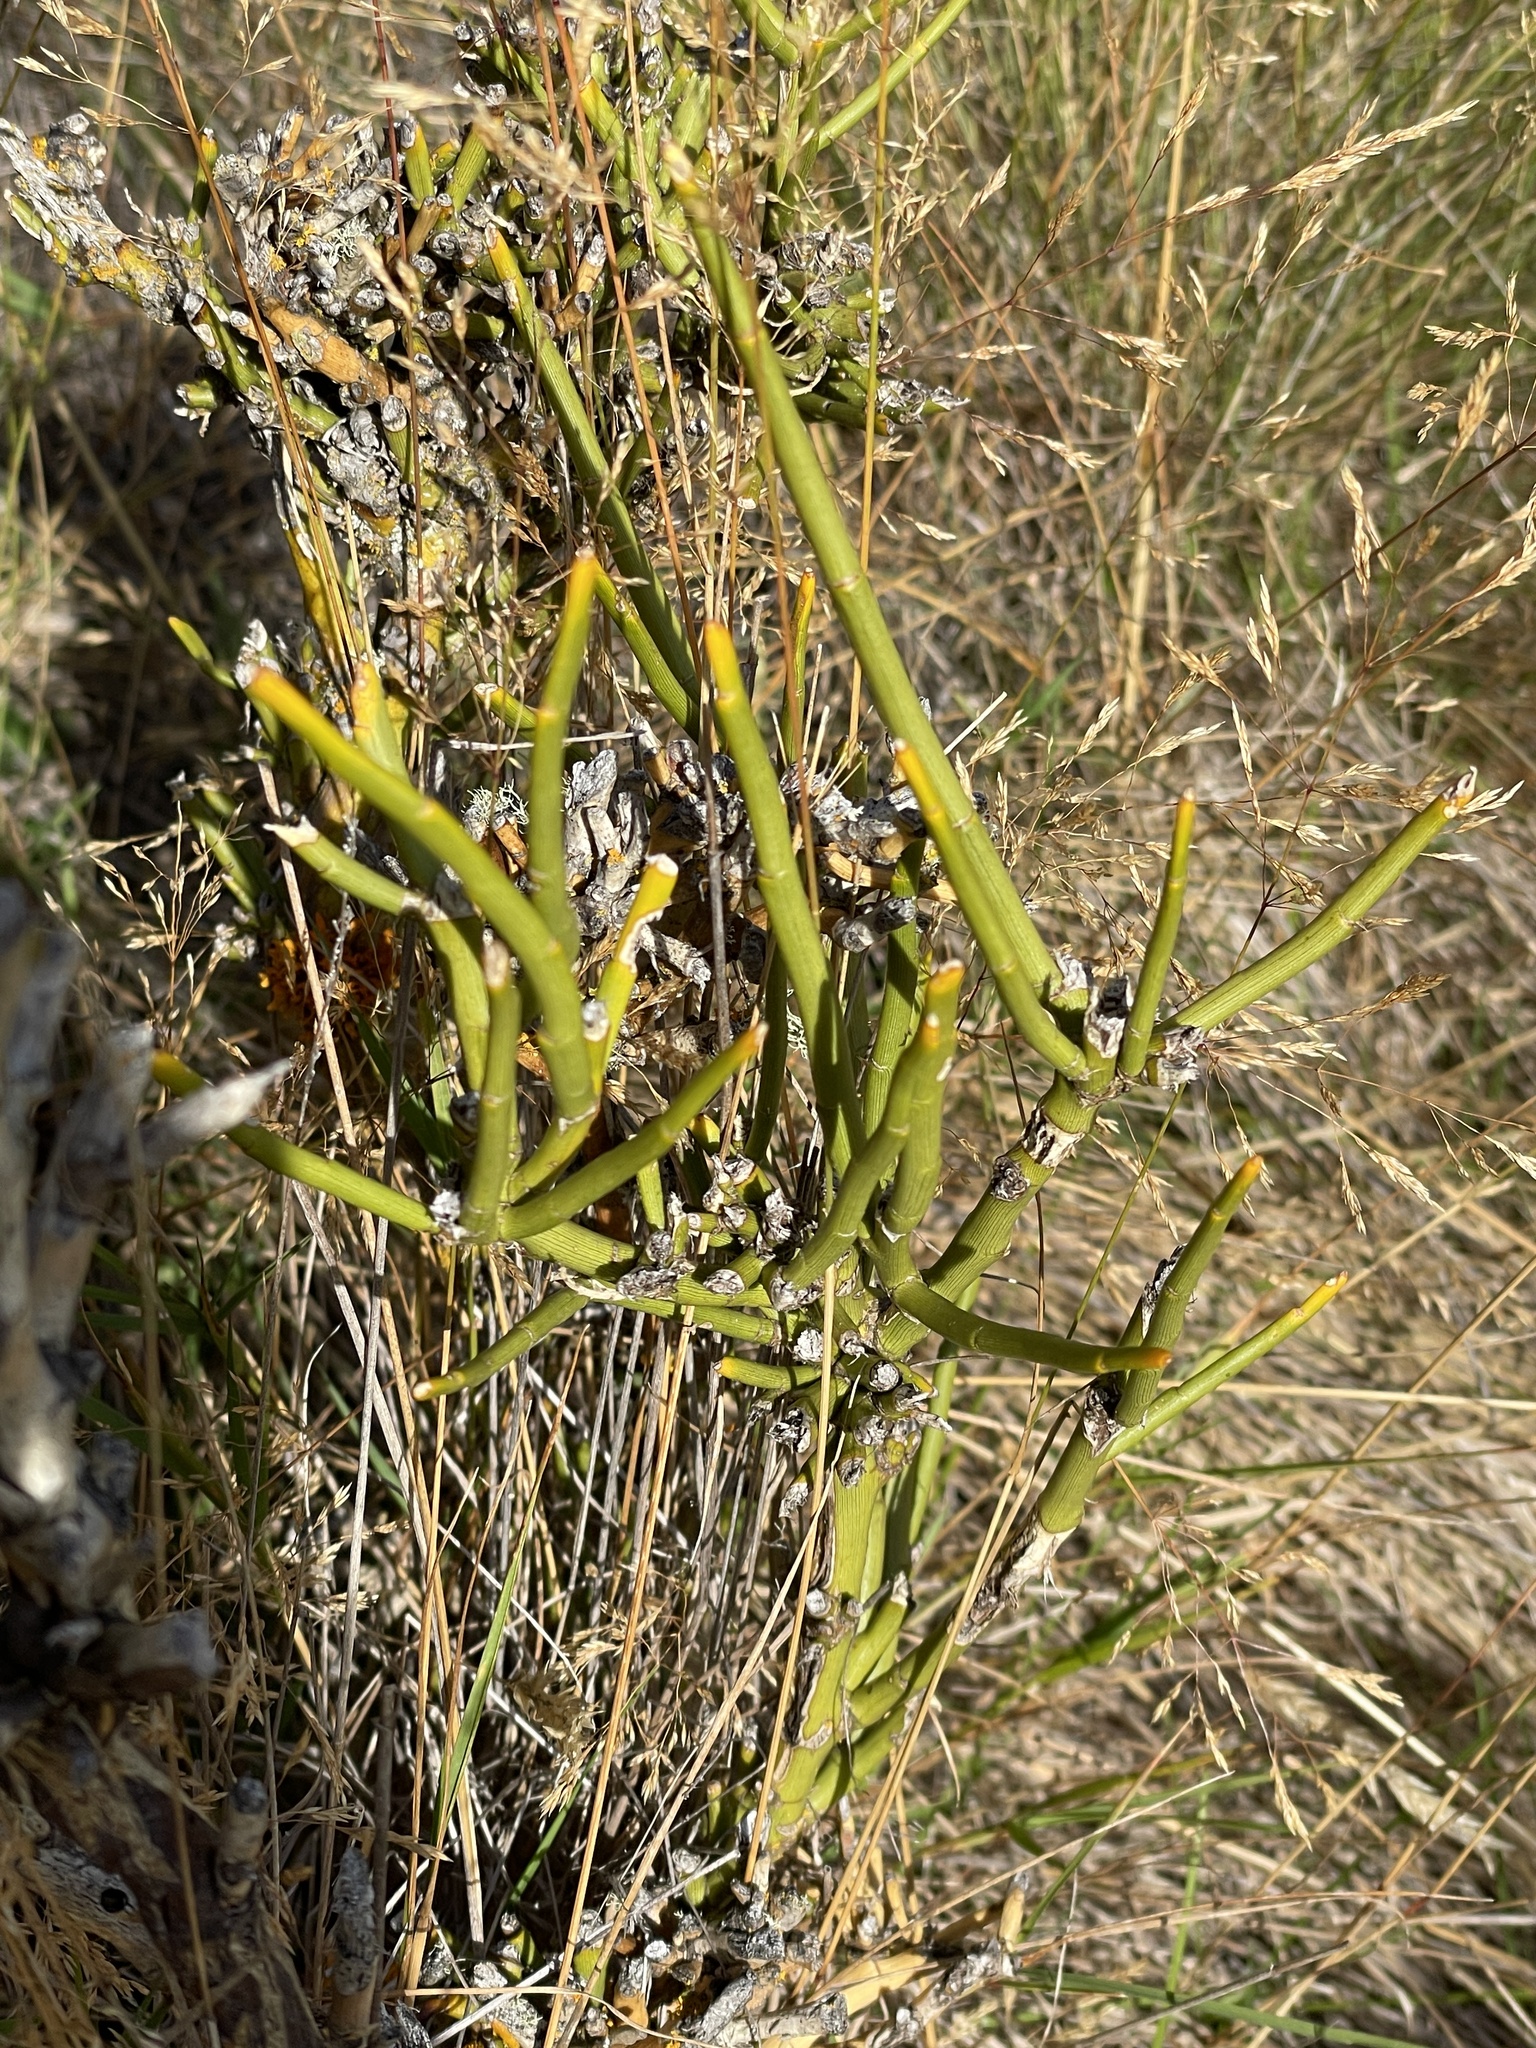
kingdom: Plantae
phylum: Tracheophyta
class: Magnoliopsida
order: Fabales
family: Fabaceae
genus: Carmichaelia
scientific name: Carmichaelia petriei
